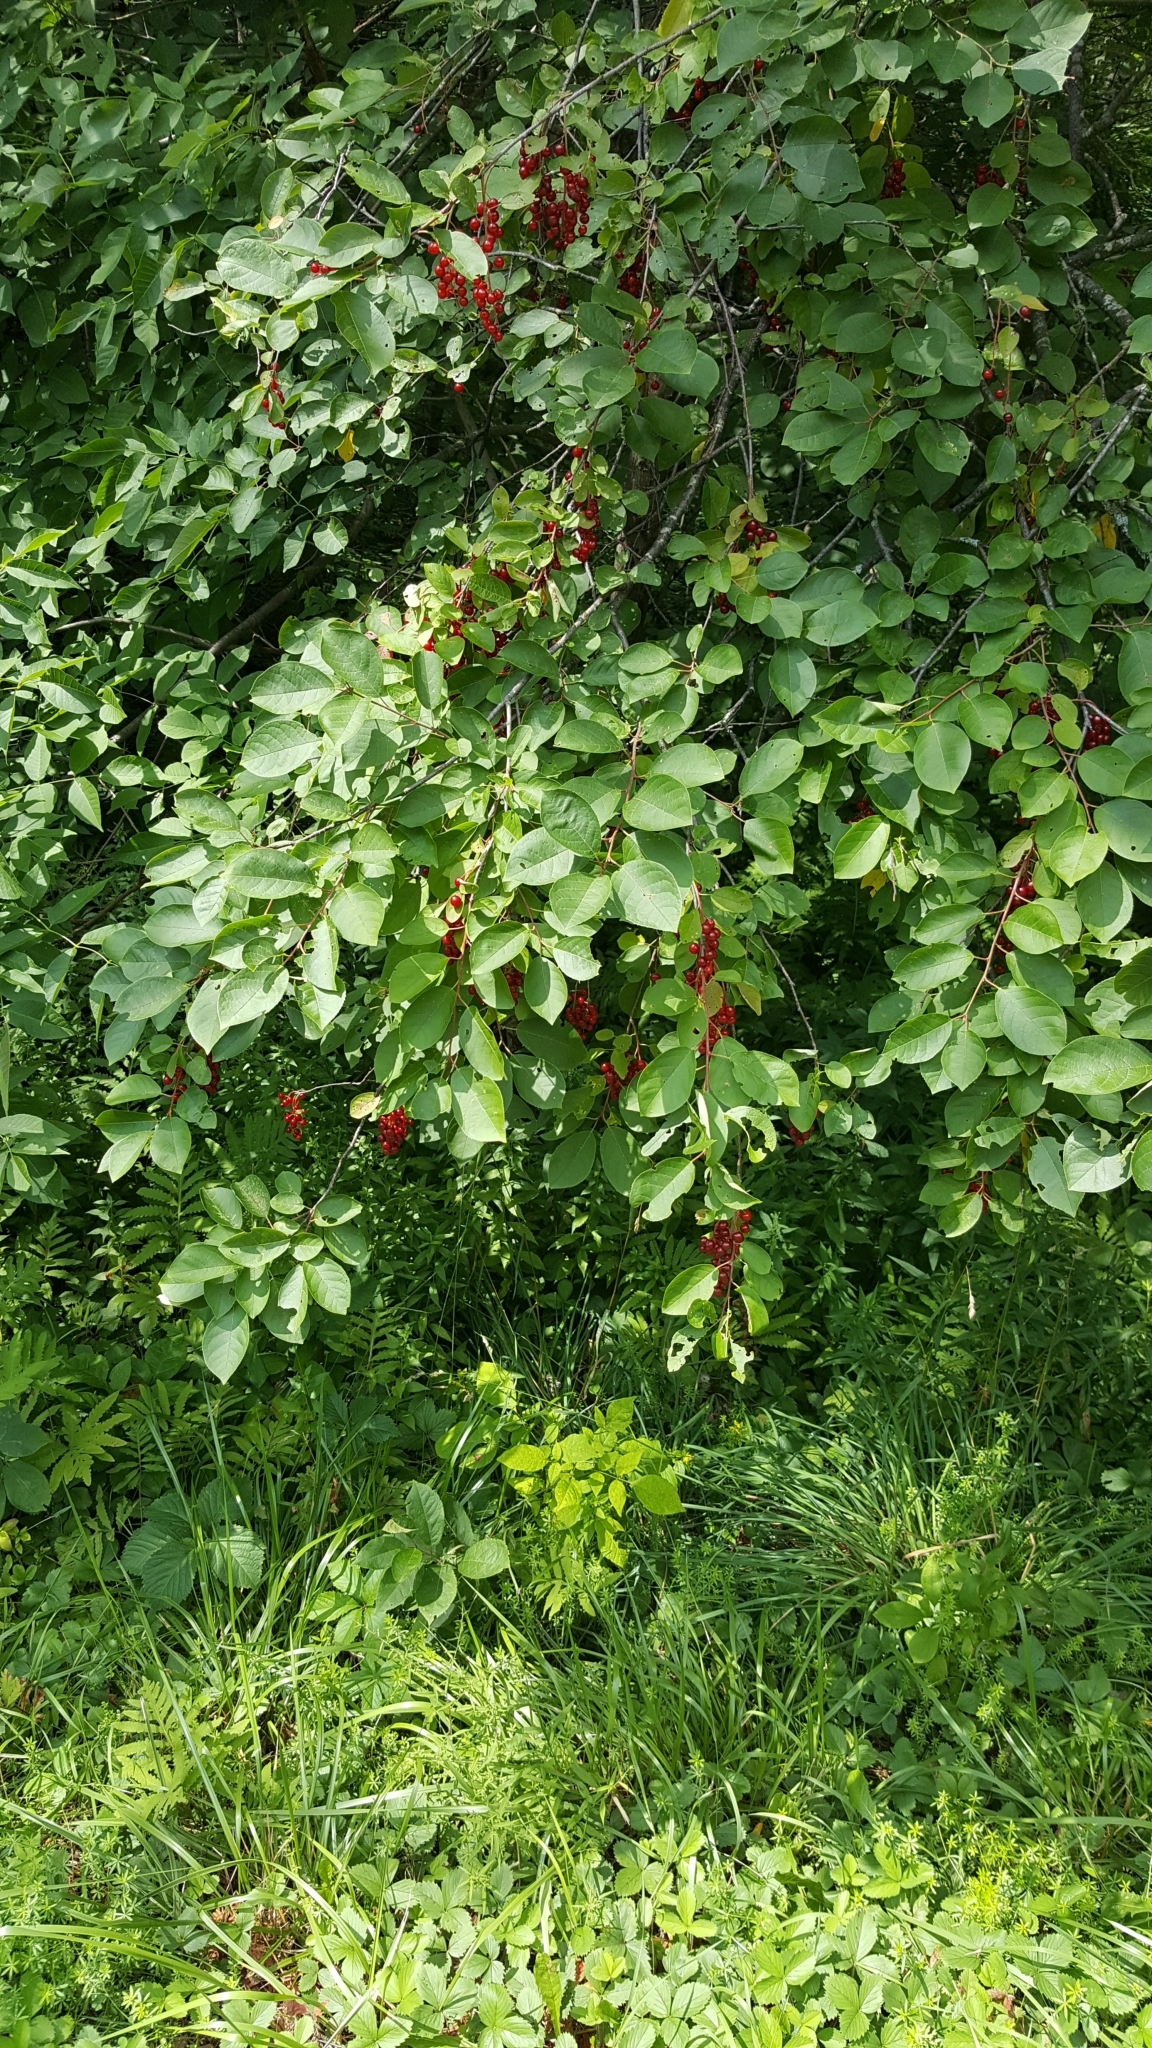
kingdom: Plantae
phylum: Tracheophyta
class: Magnoliopsida
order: Rosales
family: Rosaceae
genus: Prunus
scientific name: Prunus virginiana
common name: Chokecherry
